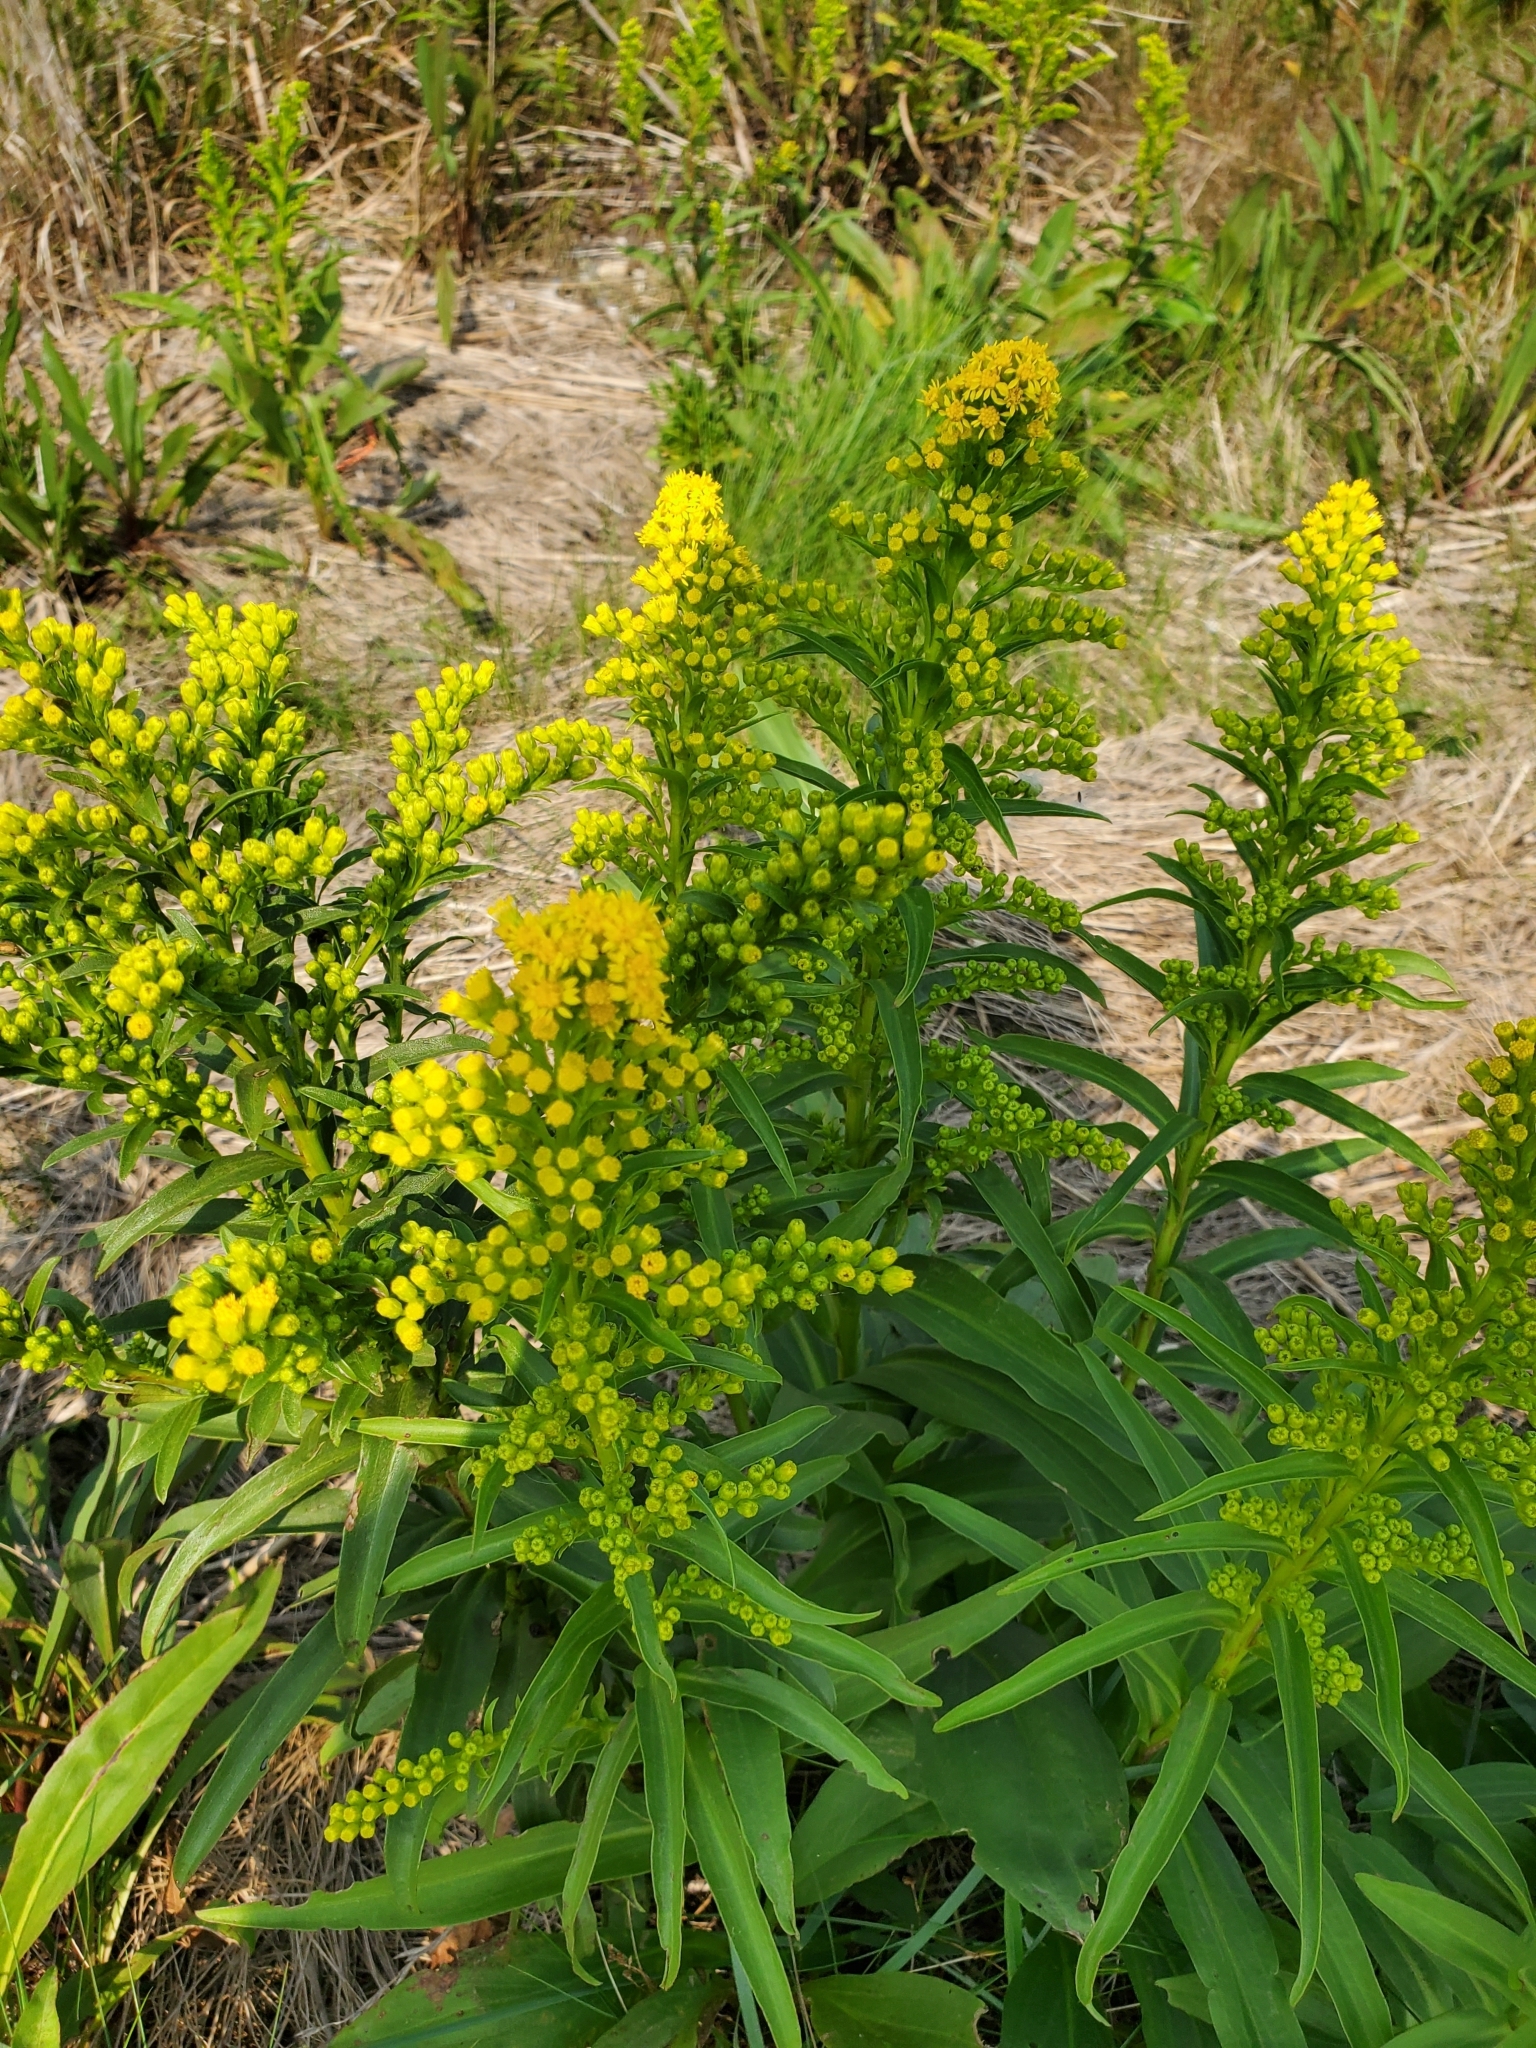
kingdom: Plantae
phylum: Tracheophyta
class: Magnoliopsida
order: Asterales
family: Asteraceae
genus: Solidago
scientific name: Solidago sempervirens
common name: Salt-marsh goldenrod
